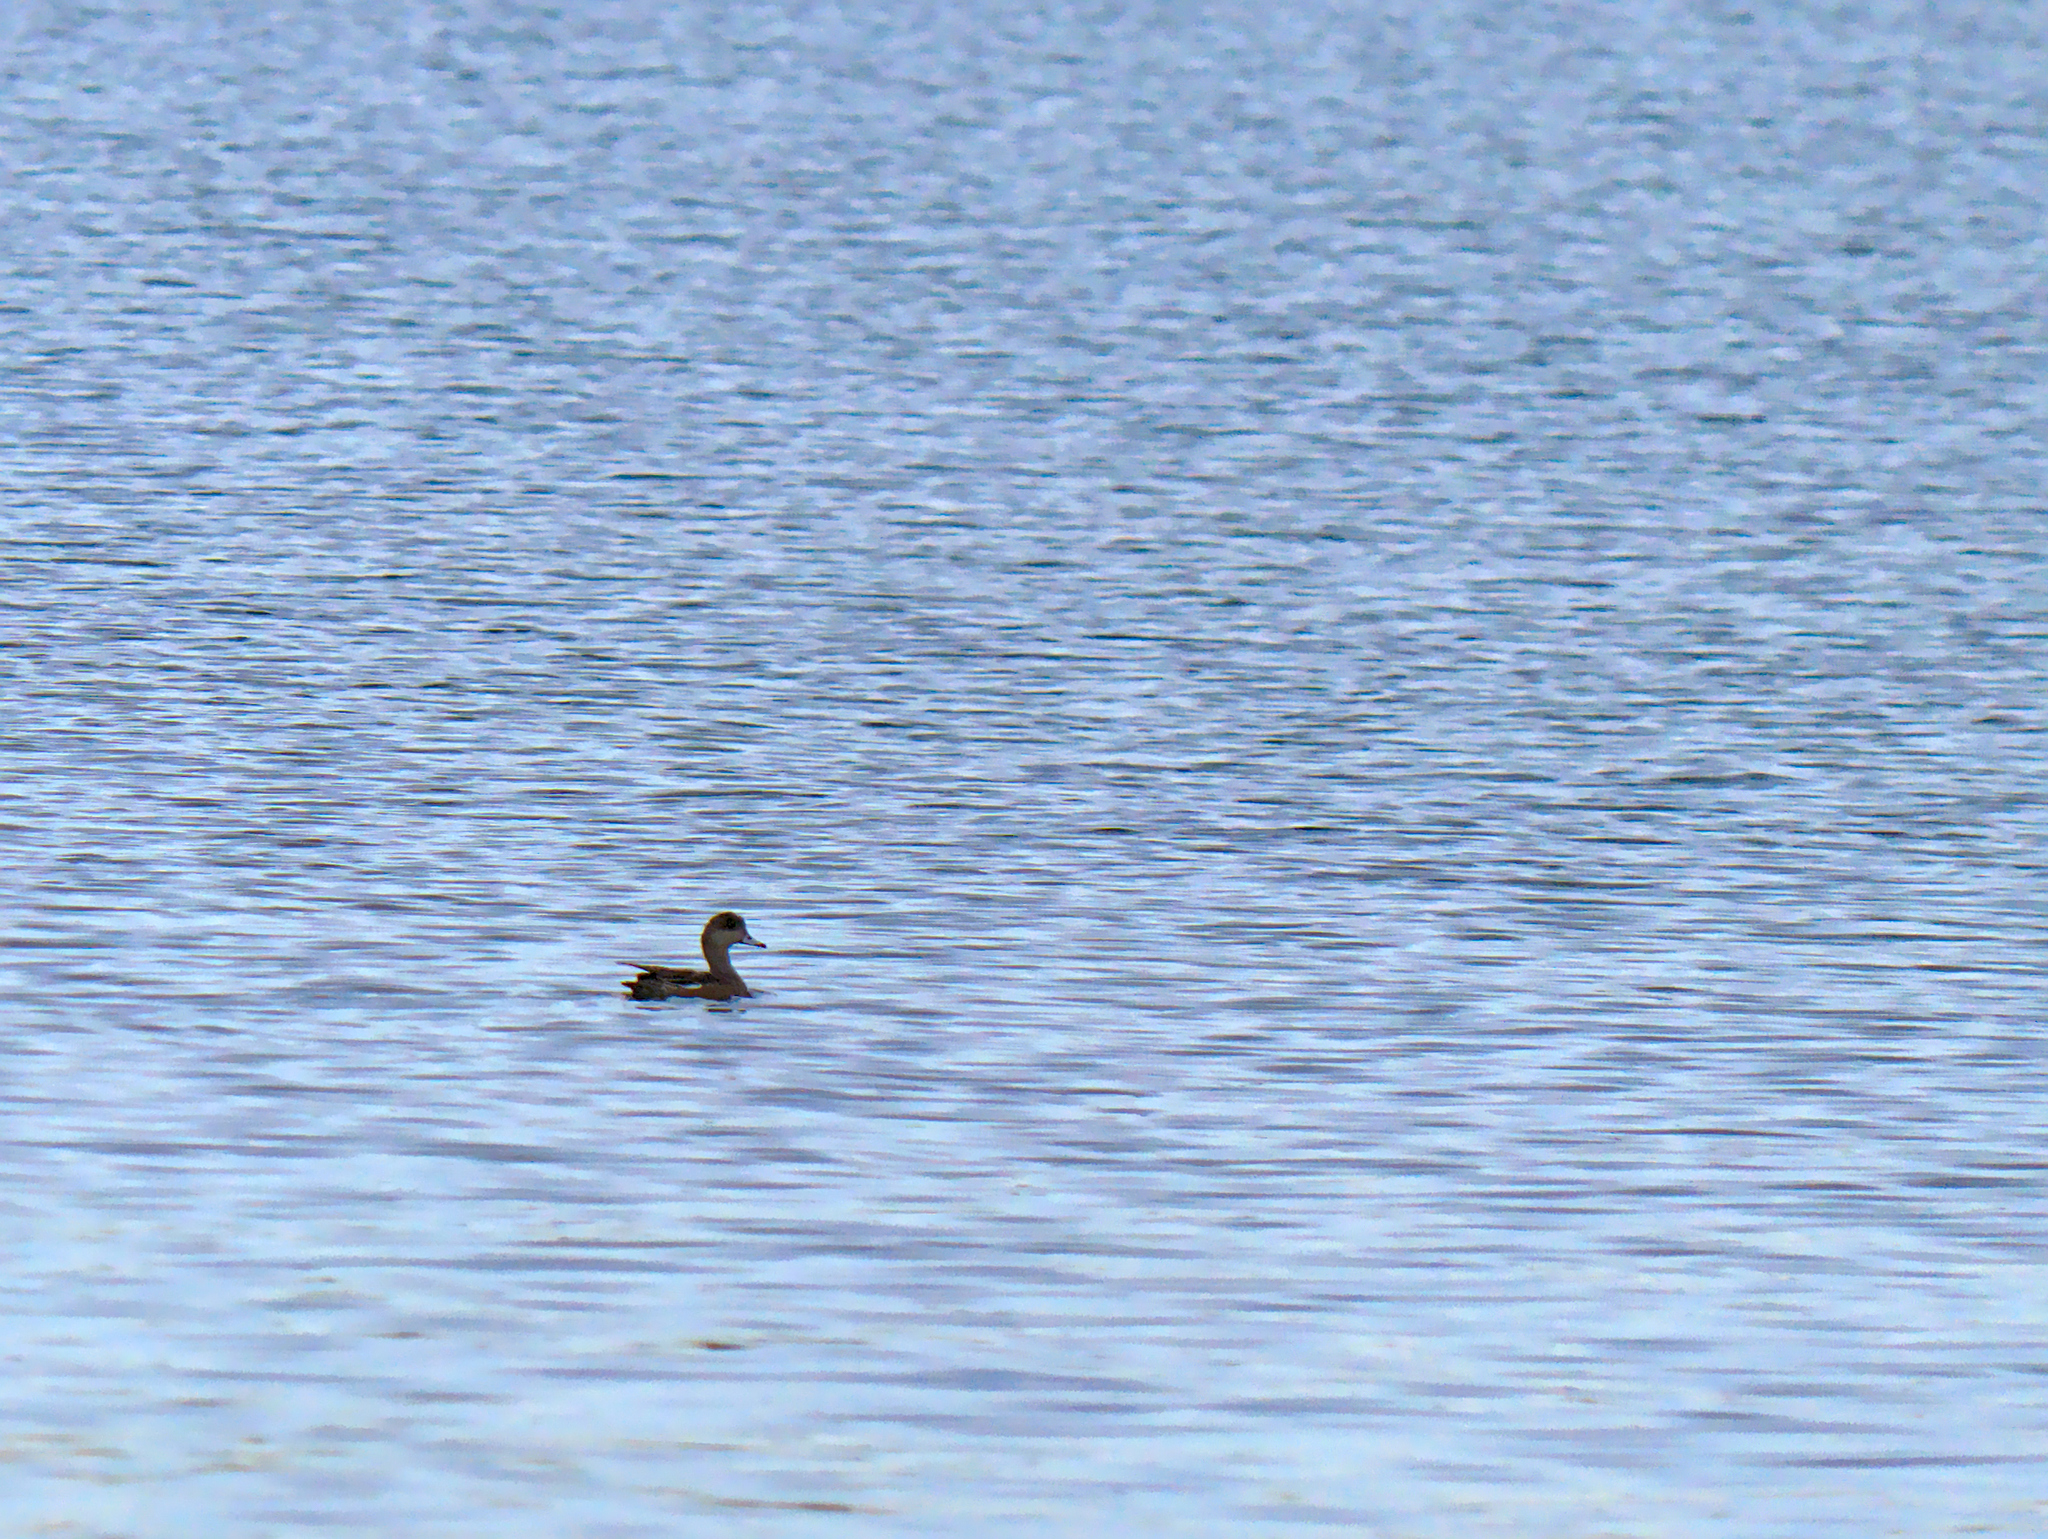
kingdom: Animalia
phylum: Chordata
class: Aves
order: Anseriformes
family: Anatidae
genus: Mareca
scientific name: Mareca americana
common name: American wigeon
